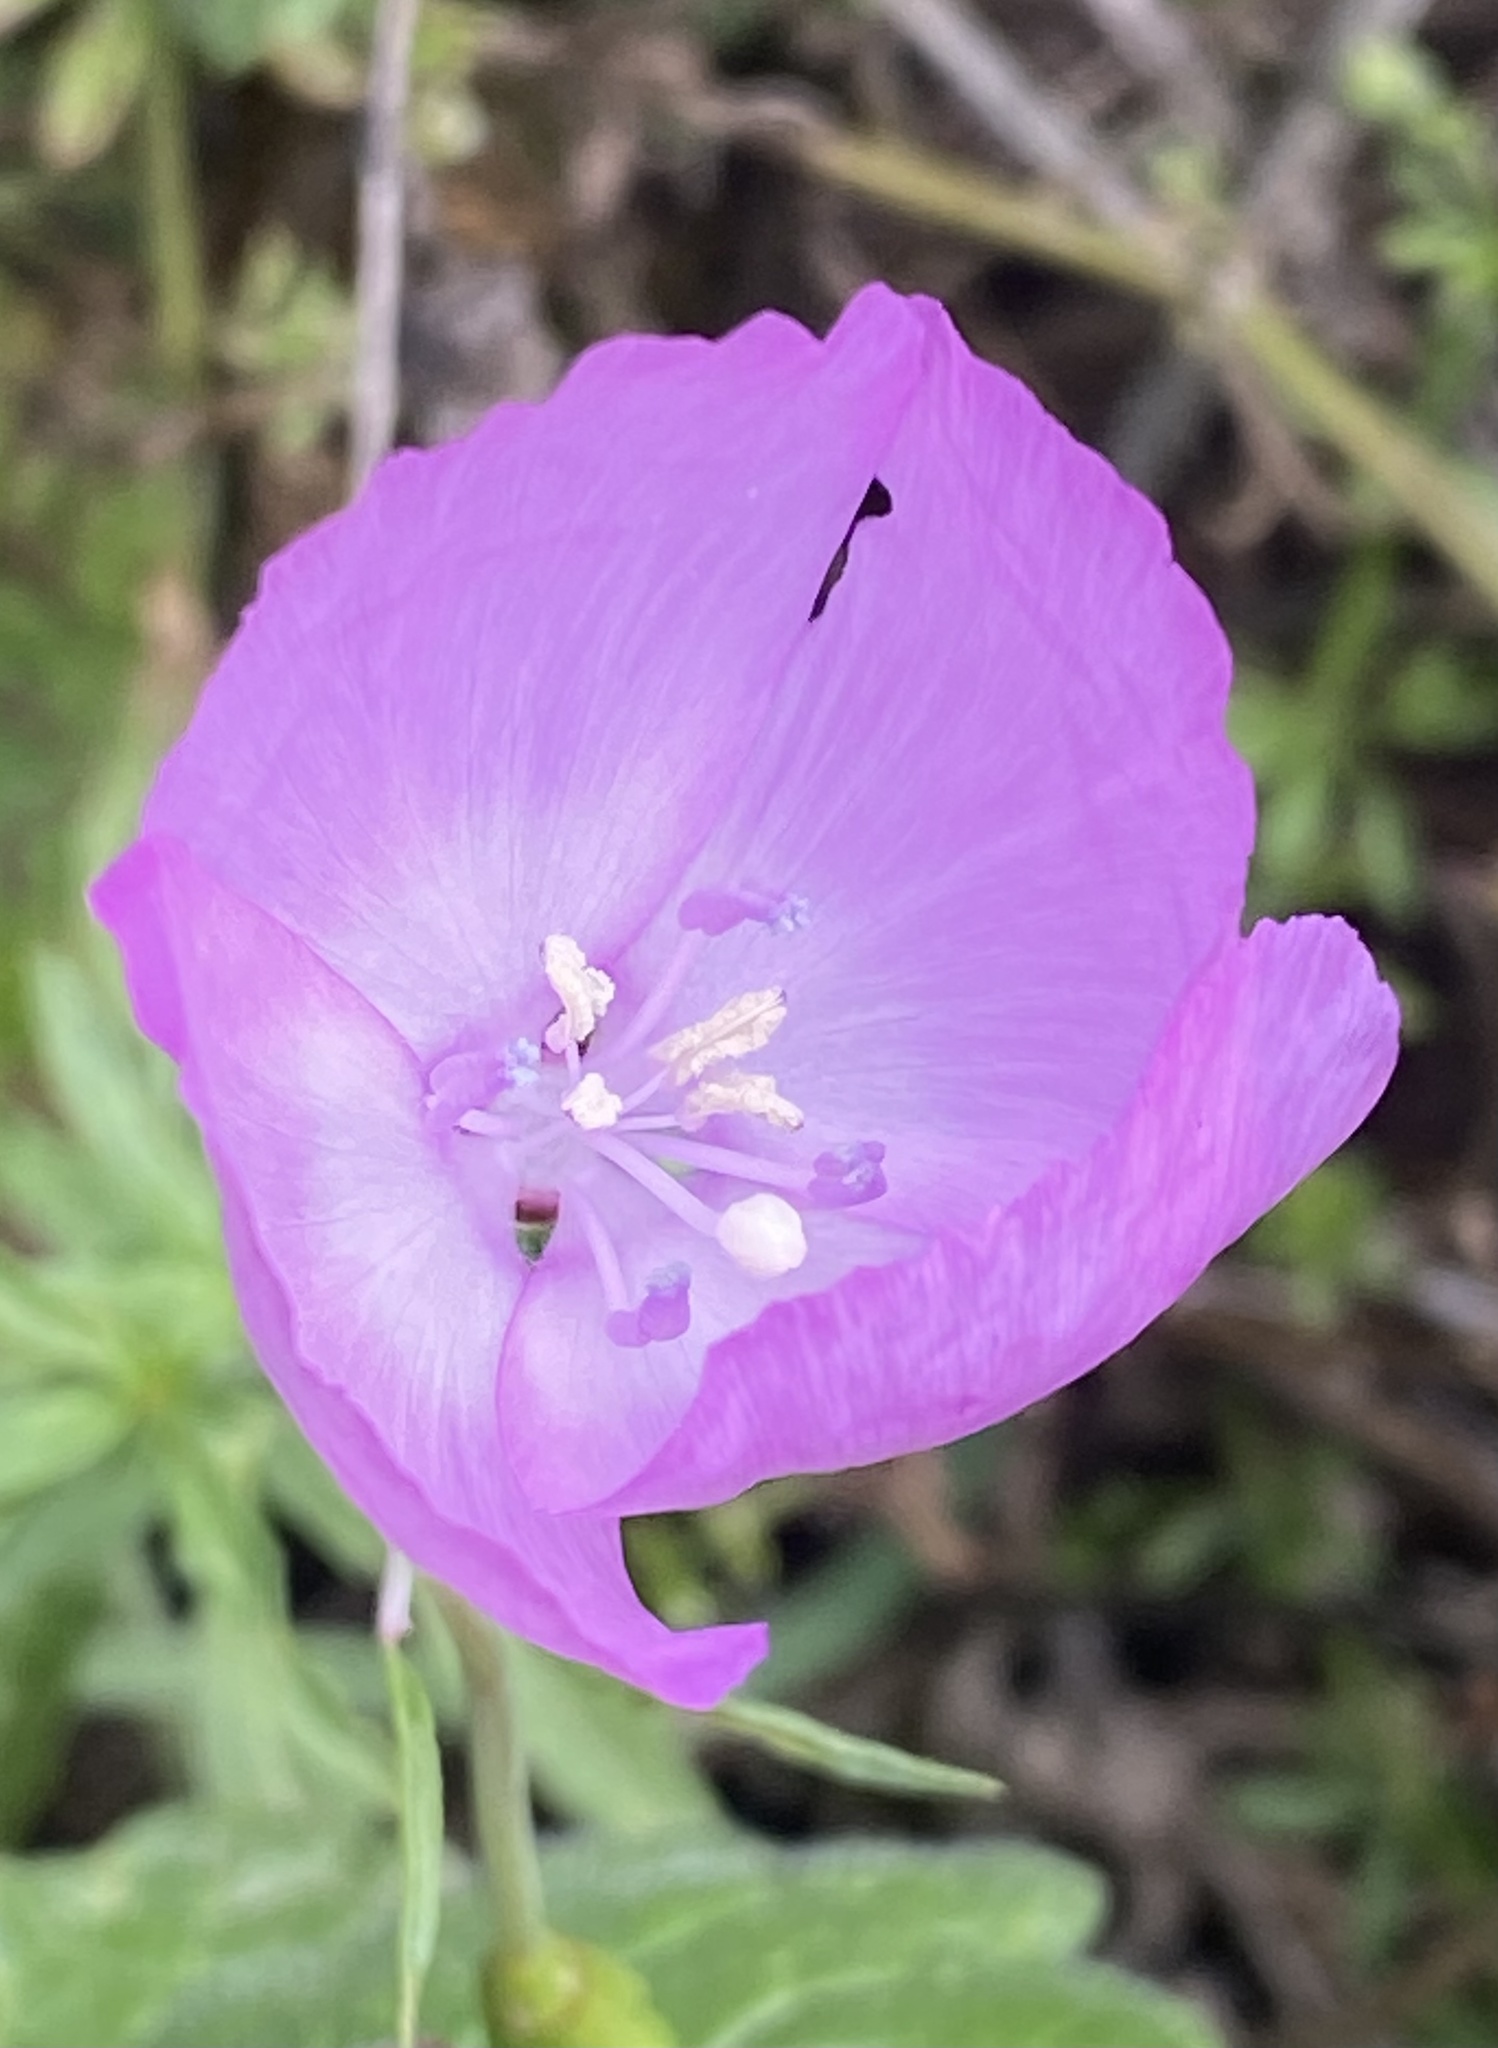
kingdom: Plantae
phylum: Tracheophyta
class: Magnoliopsida
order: Myrtales
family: Onagraceae
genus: Clarkia
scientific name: Clarkia lewisii
